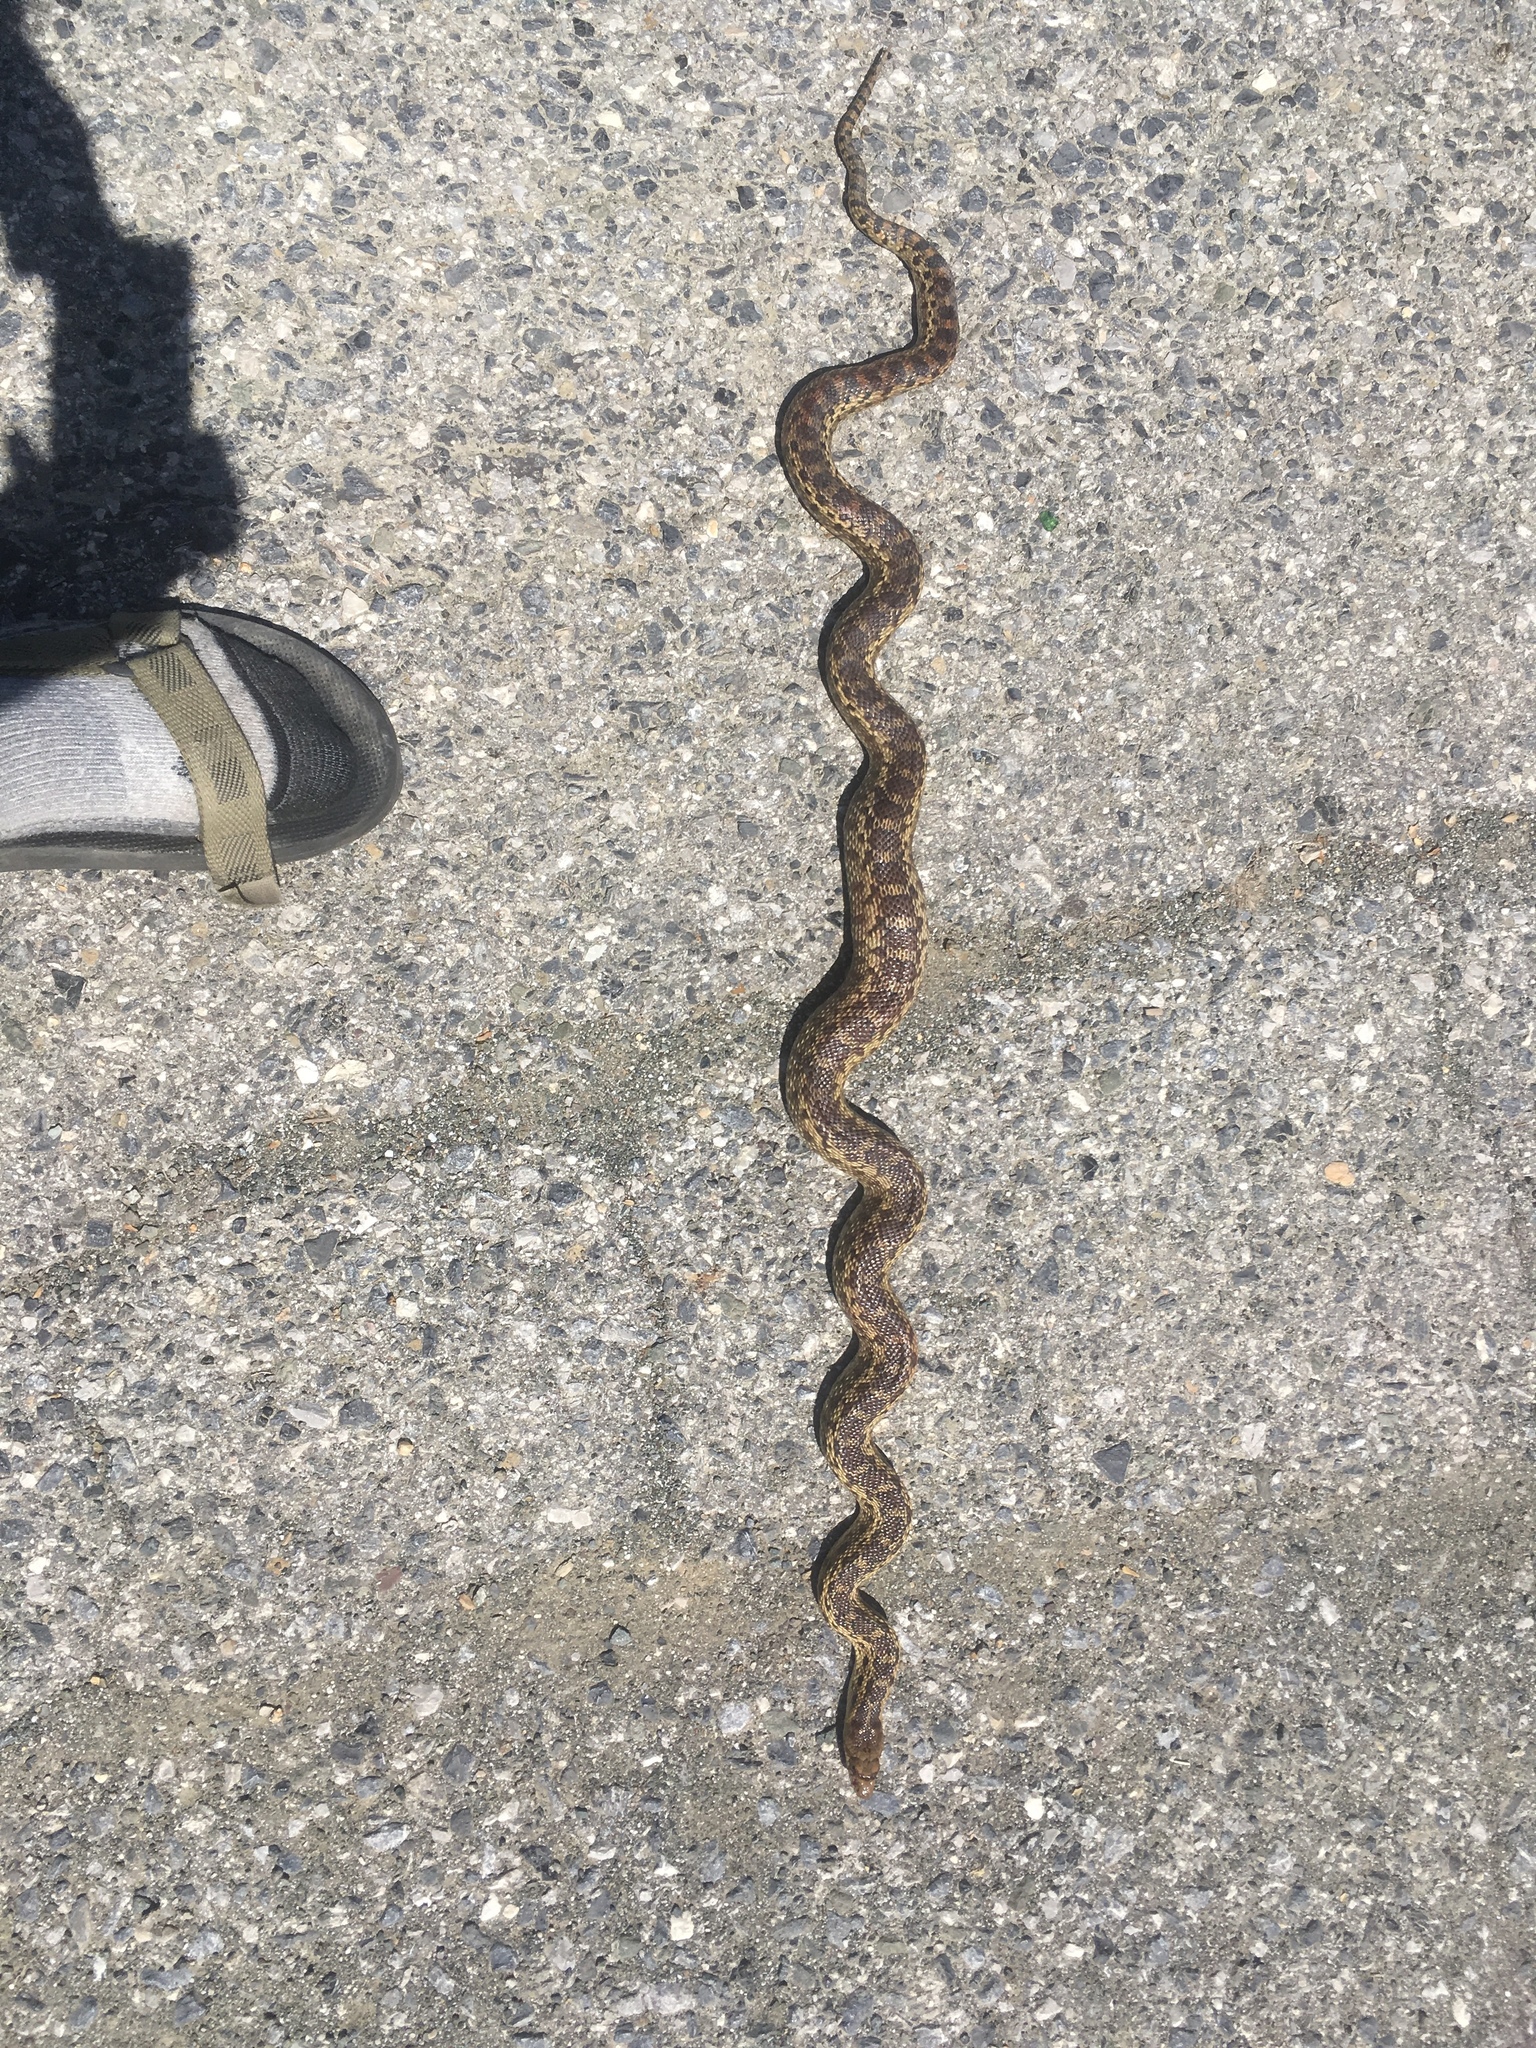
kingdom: Animalia
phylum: Chordata
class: Squamata
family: Colubridae
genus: Pituophis
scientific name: Pituophis catenifer
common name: Gopher snake
